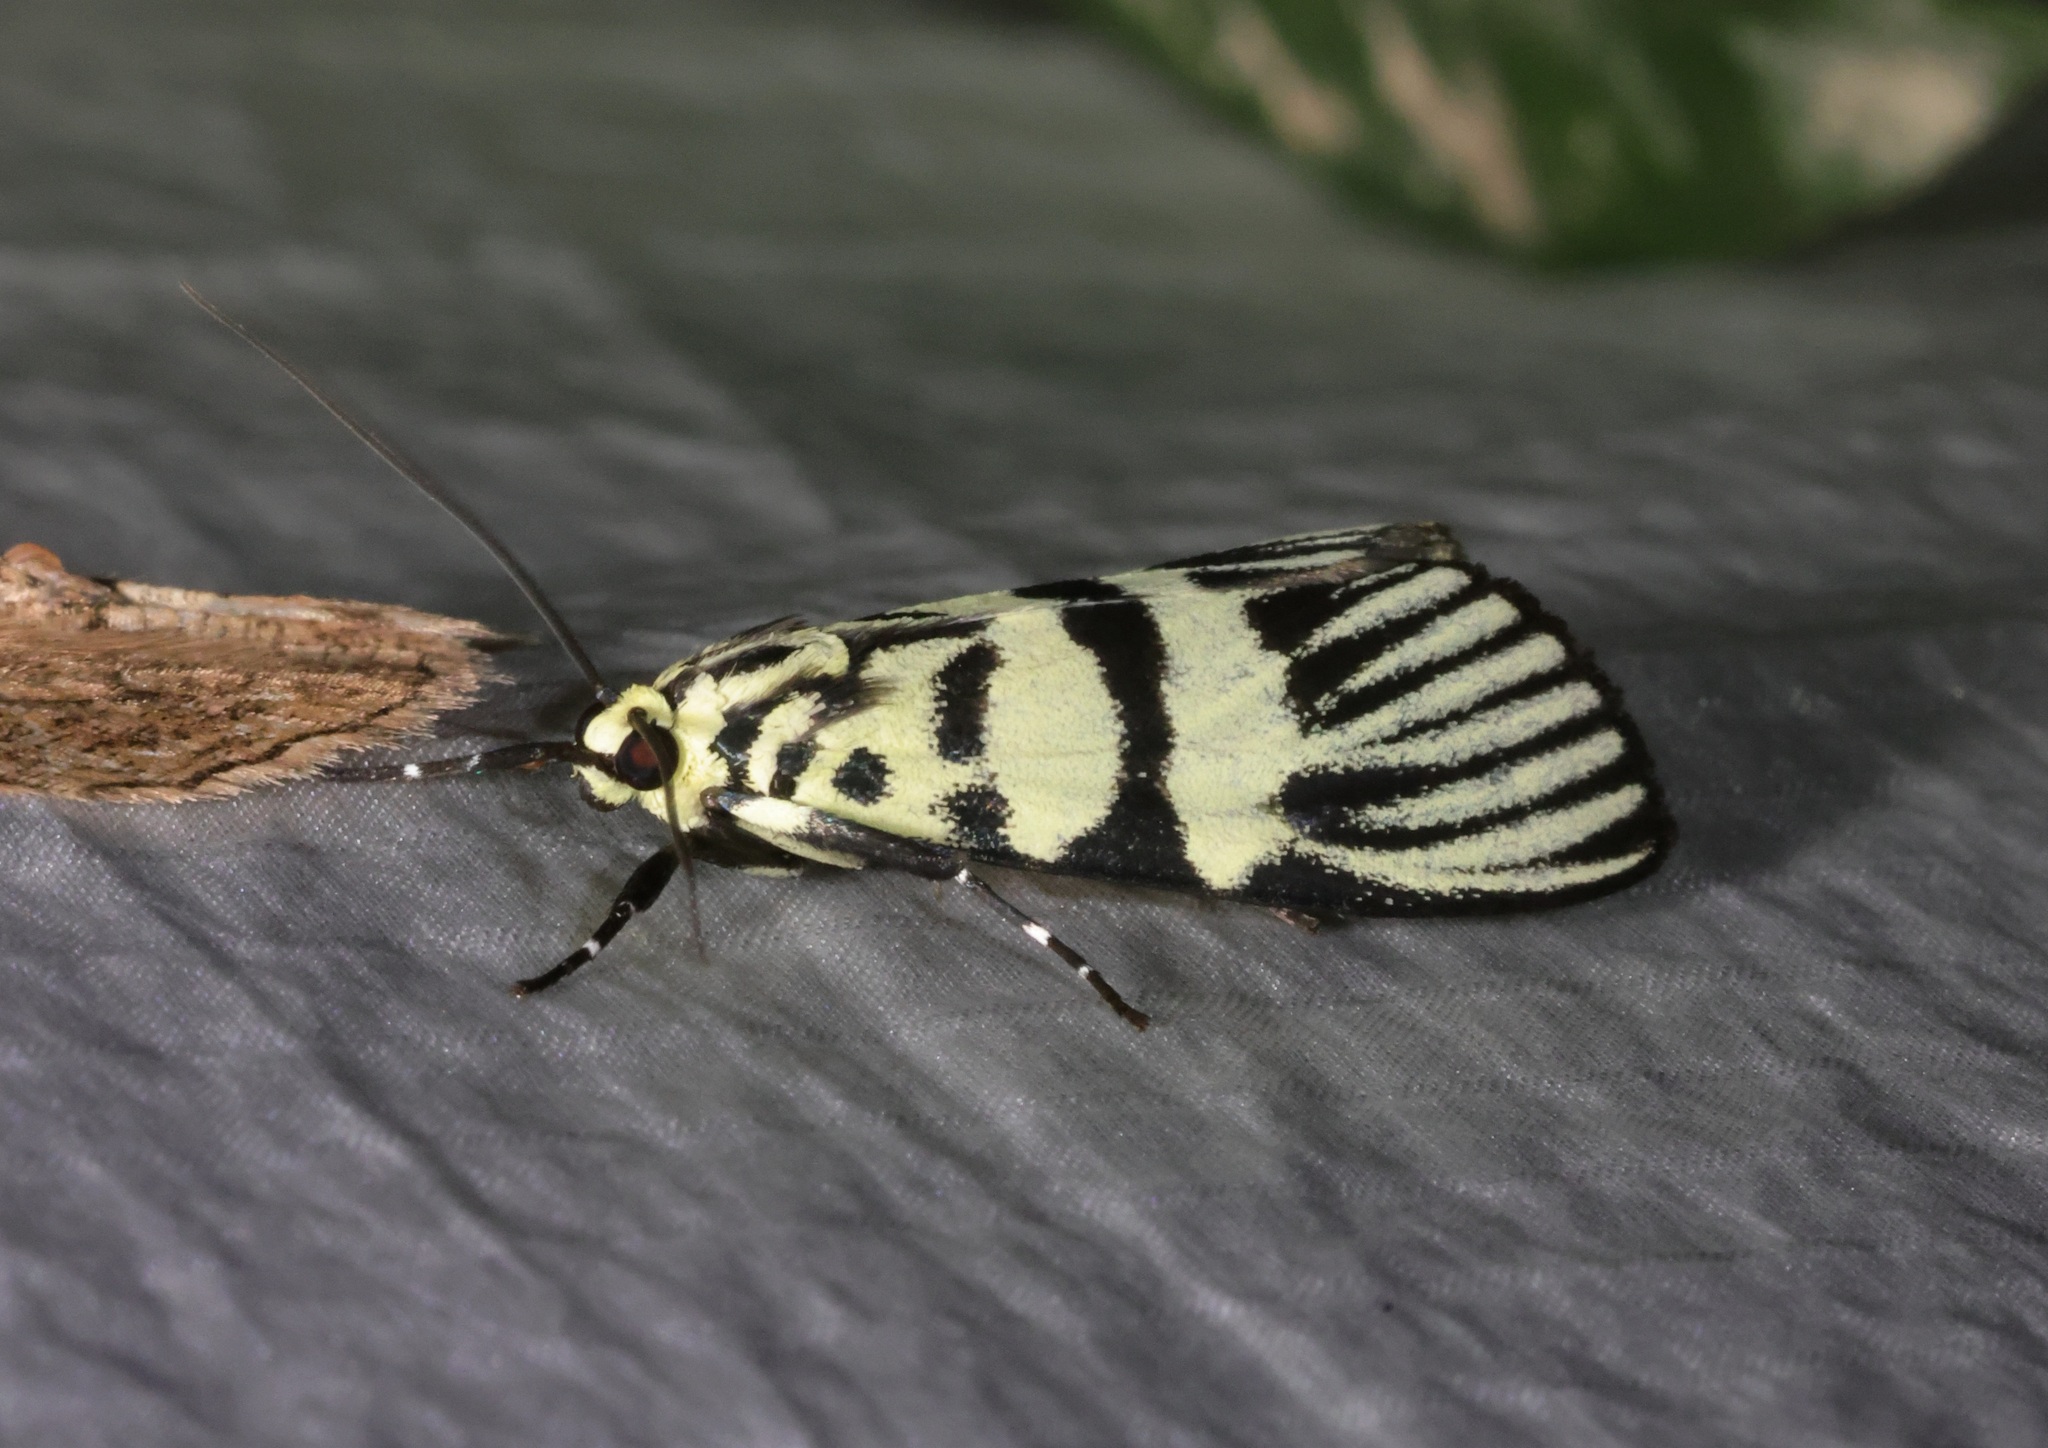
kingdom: Animalia
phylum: Arthropoda
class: Insecta
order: Lepidoptera
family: Crambidae
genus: Heortia
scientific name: Heortia vitessoides
